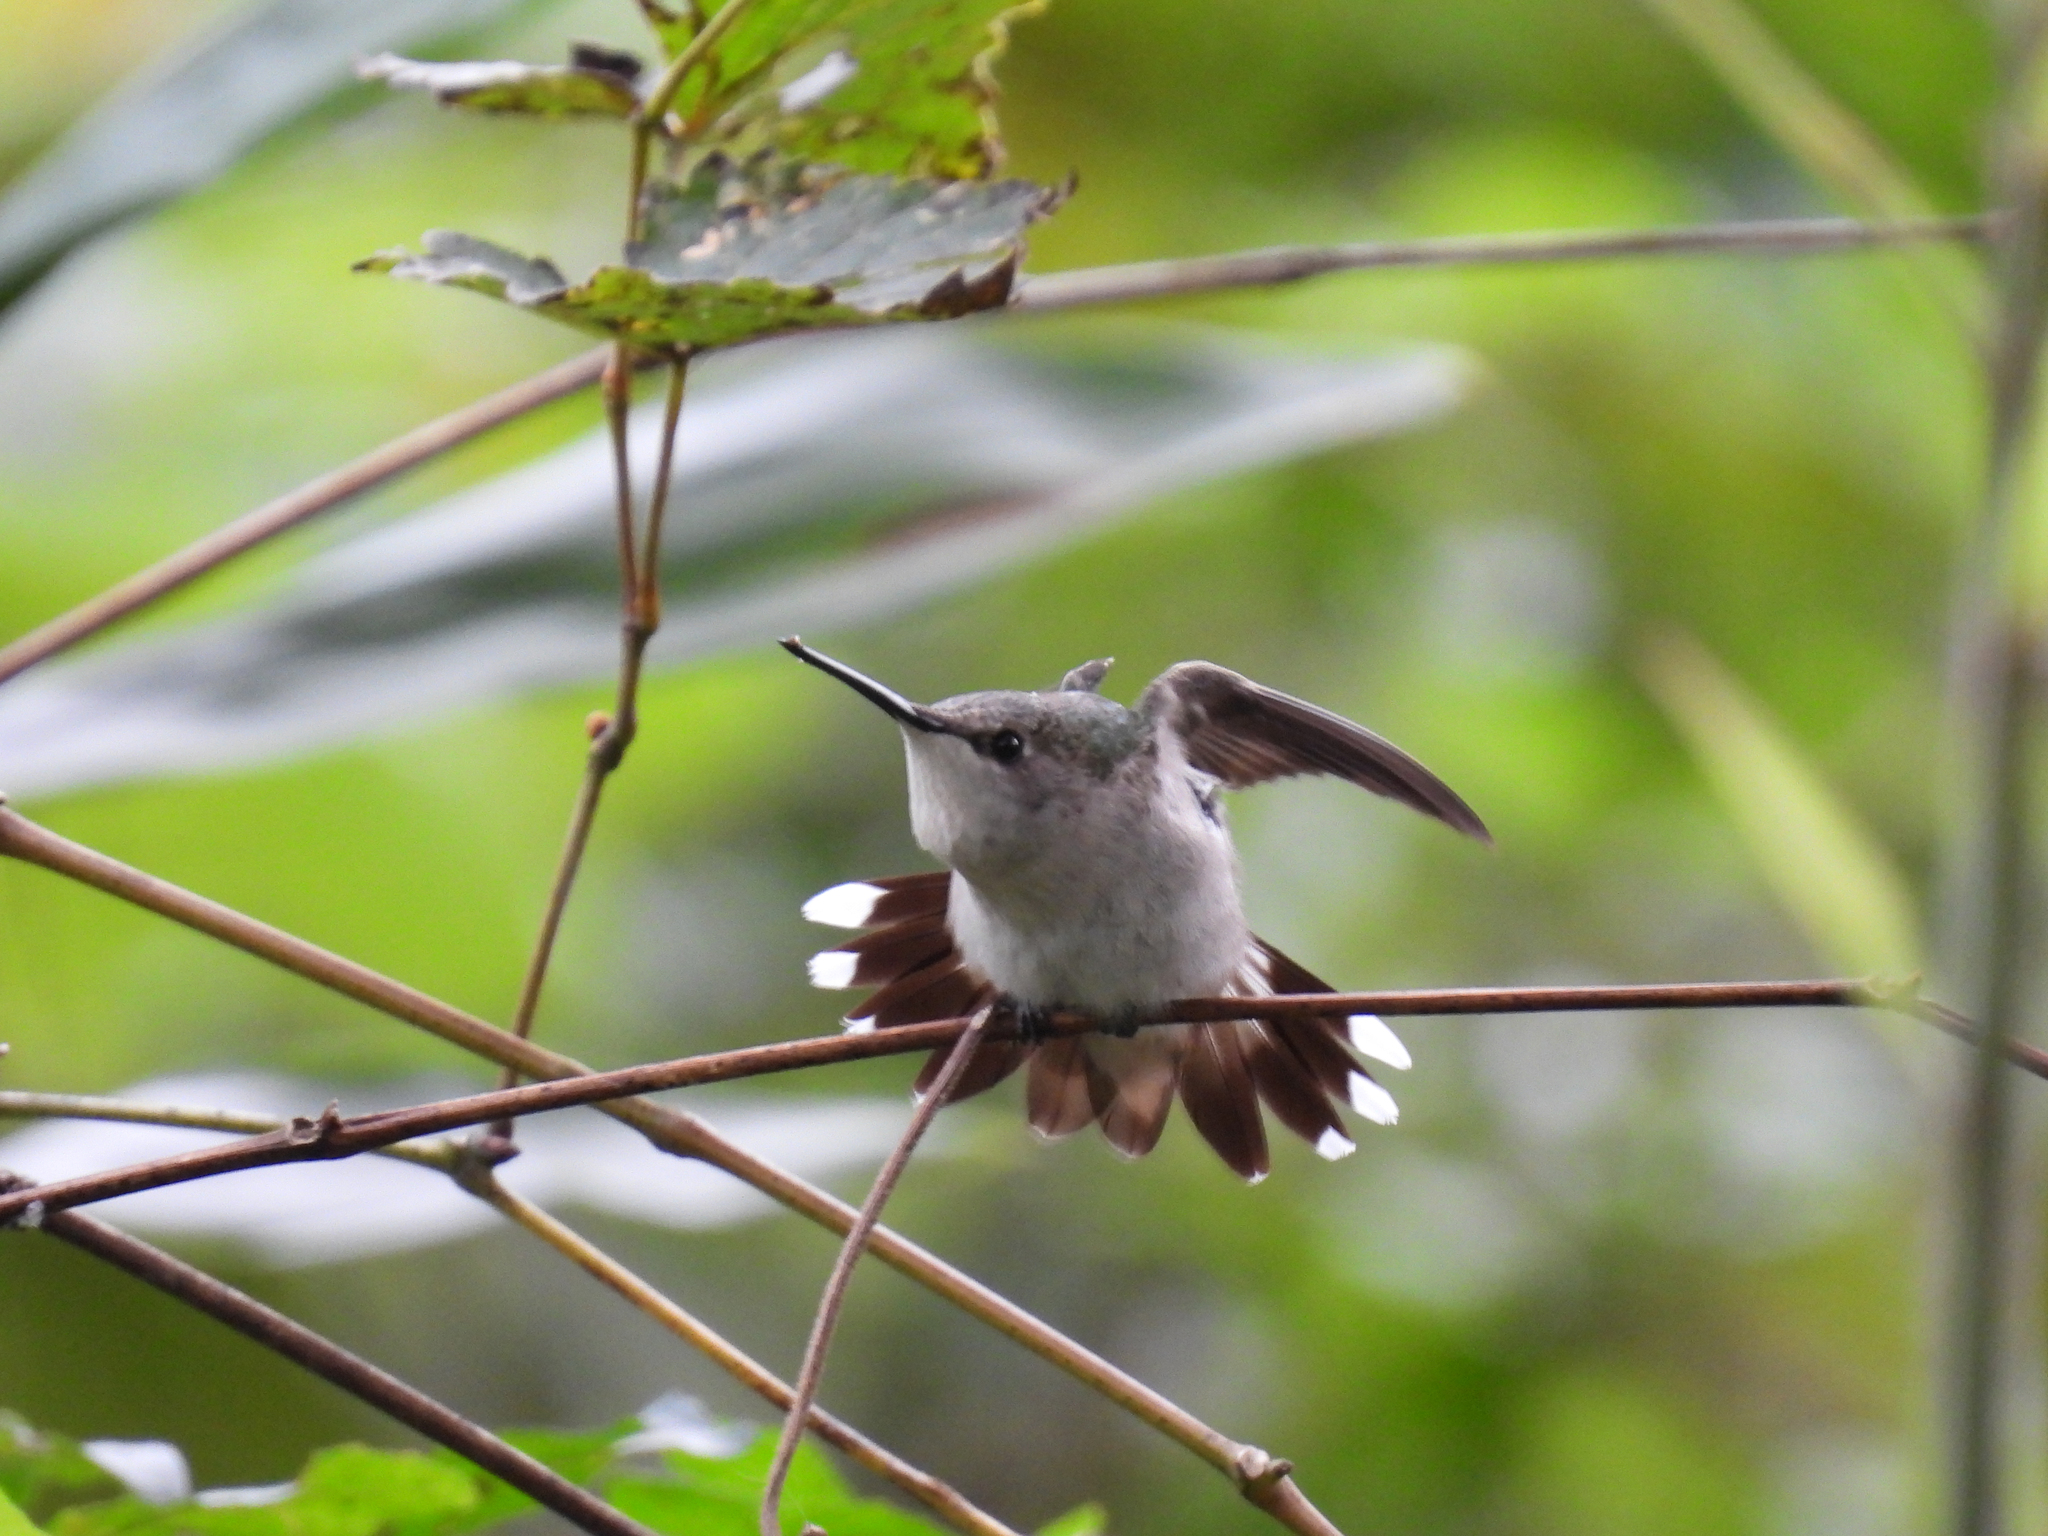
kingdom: Animalia
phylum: Chordata
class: Aves
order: Apodiformes
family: Trochilidae
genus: Archilochus
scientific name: Archilochus colubris
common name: Ruby-throated hummingbird
